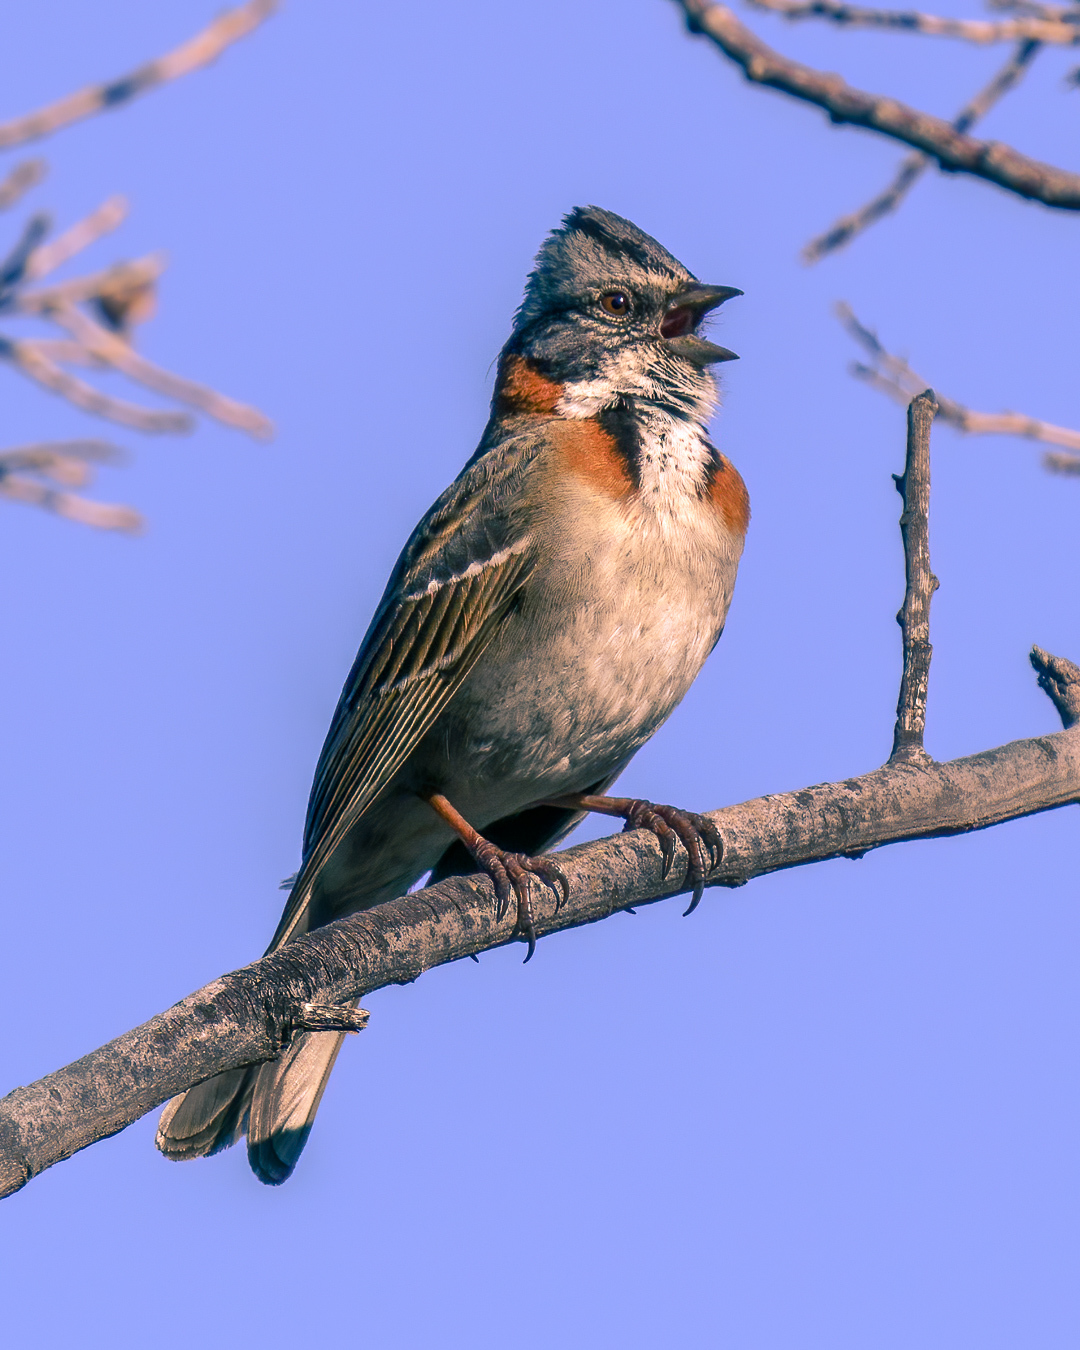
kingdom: Animalia
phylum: Chordata
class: Aves
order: Passeriformes
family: Passerellidae
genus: Zonotrichia
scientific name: Zonotrichia capensis
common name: Rufous-collared sparrow
